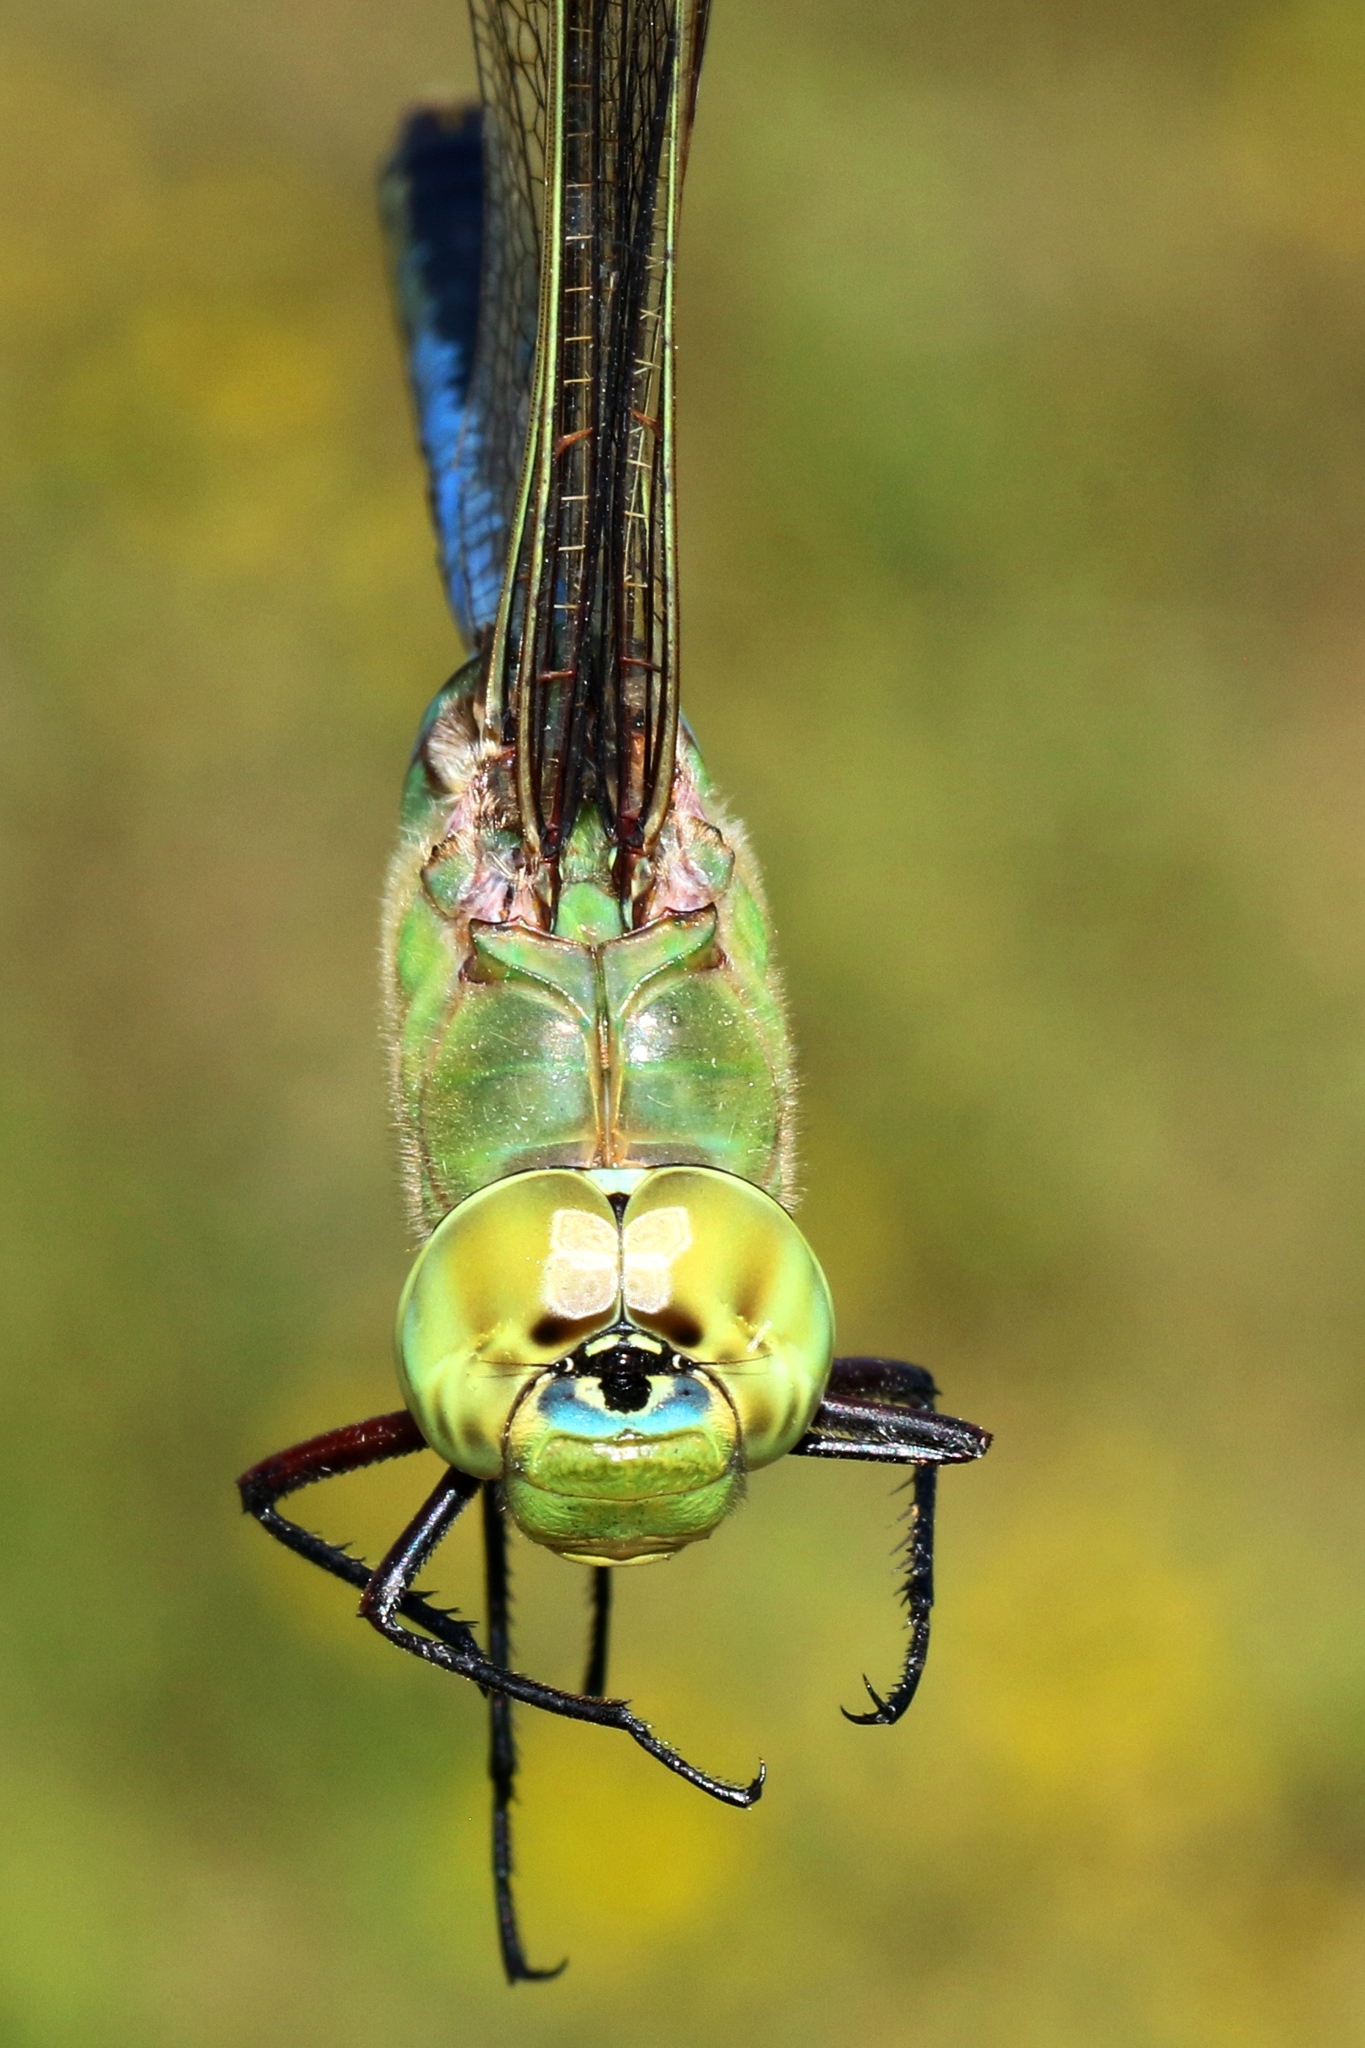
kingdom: Animalia
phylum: Arthropoda
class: Insecta
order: Odonata
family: Aeshnidae
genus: Anax
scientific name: Anax junius
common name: Common green darner
